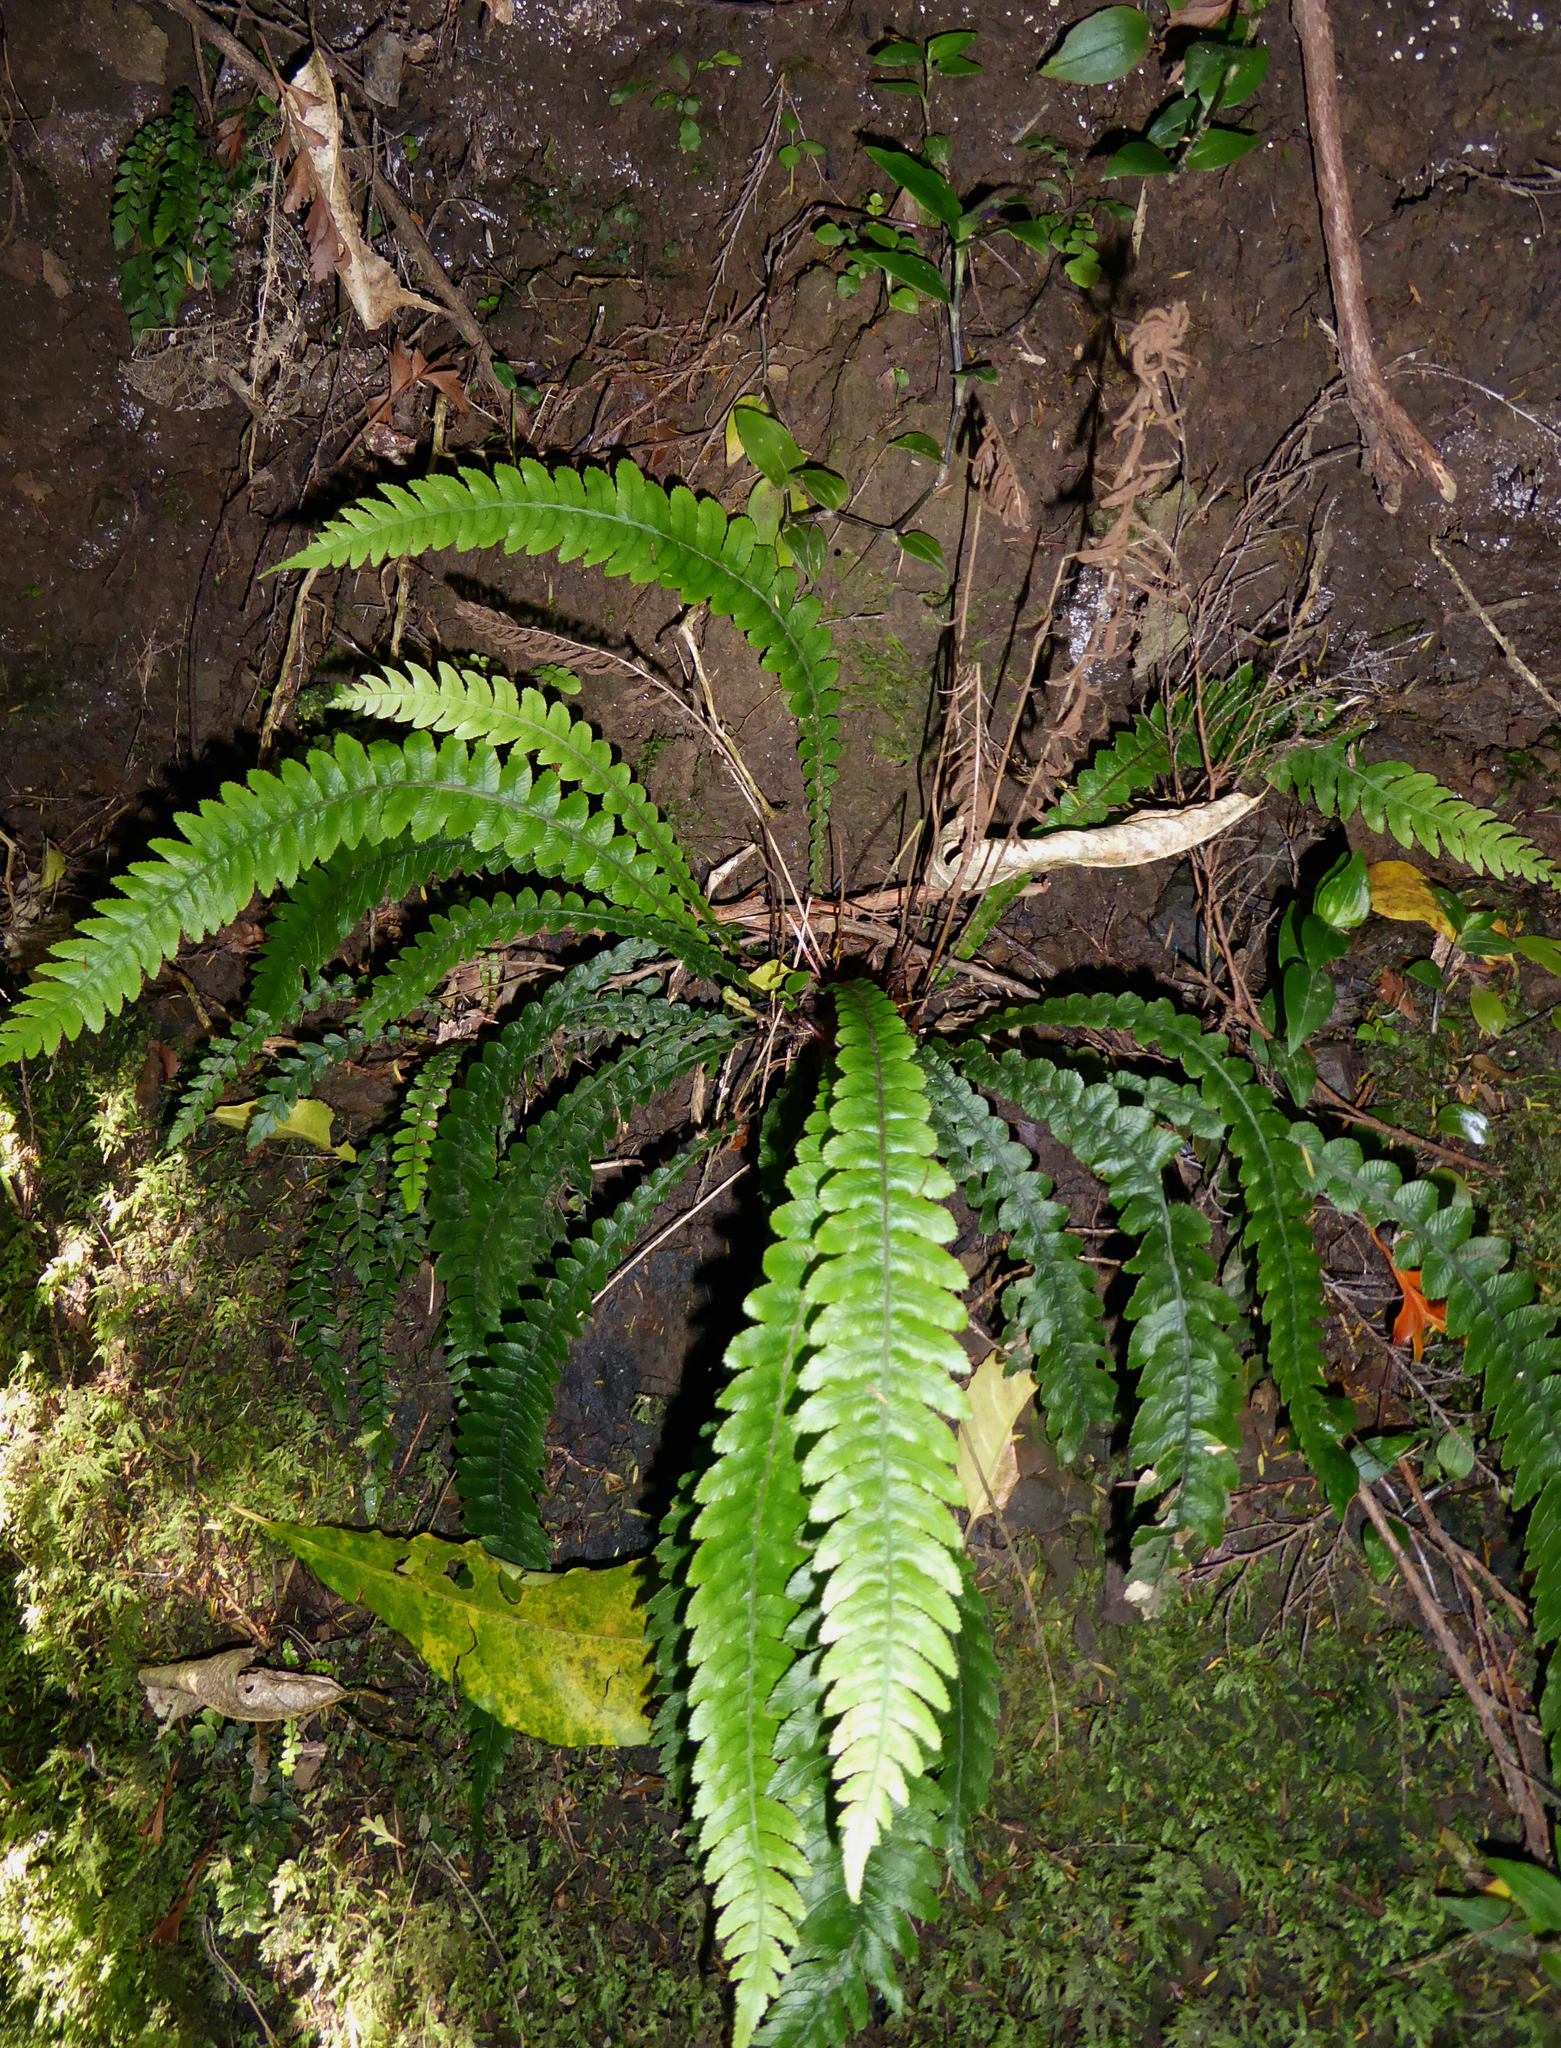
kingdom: Plantae
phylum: Tracheophyta
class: Polypodiopsida
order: Polypodiales
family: Blechnaceae
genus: Austroblechnum
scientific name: Austroblechnum lanceolatum
